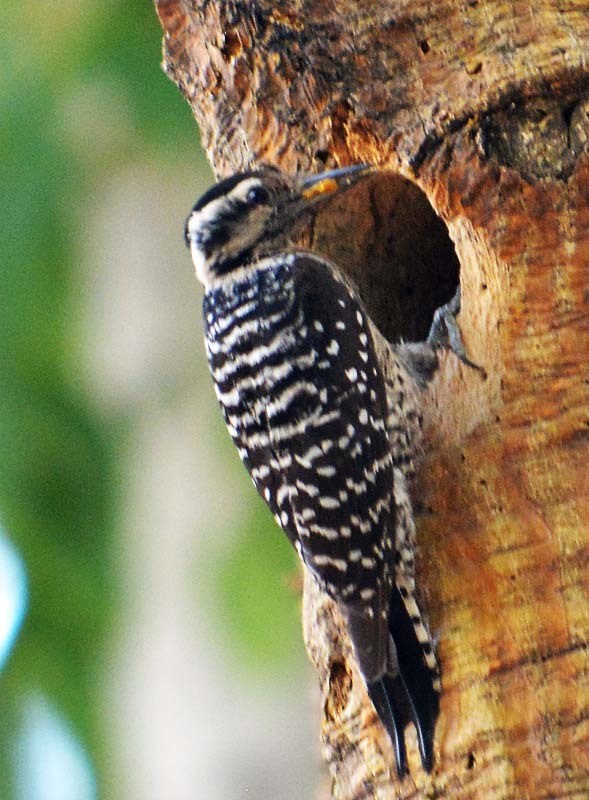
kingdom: Animalia
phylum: Chordata
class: Aves
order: Piciformes
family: Picidae
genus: Dryobates
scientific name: Dryobates scalaris
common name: Ladder-backed woodpecker
